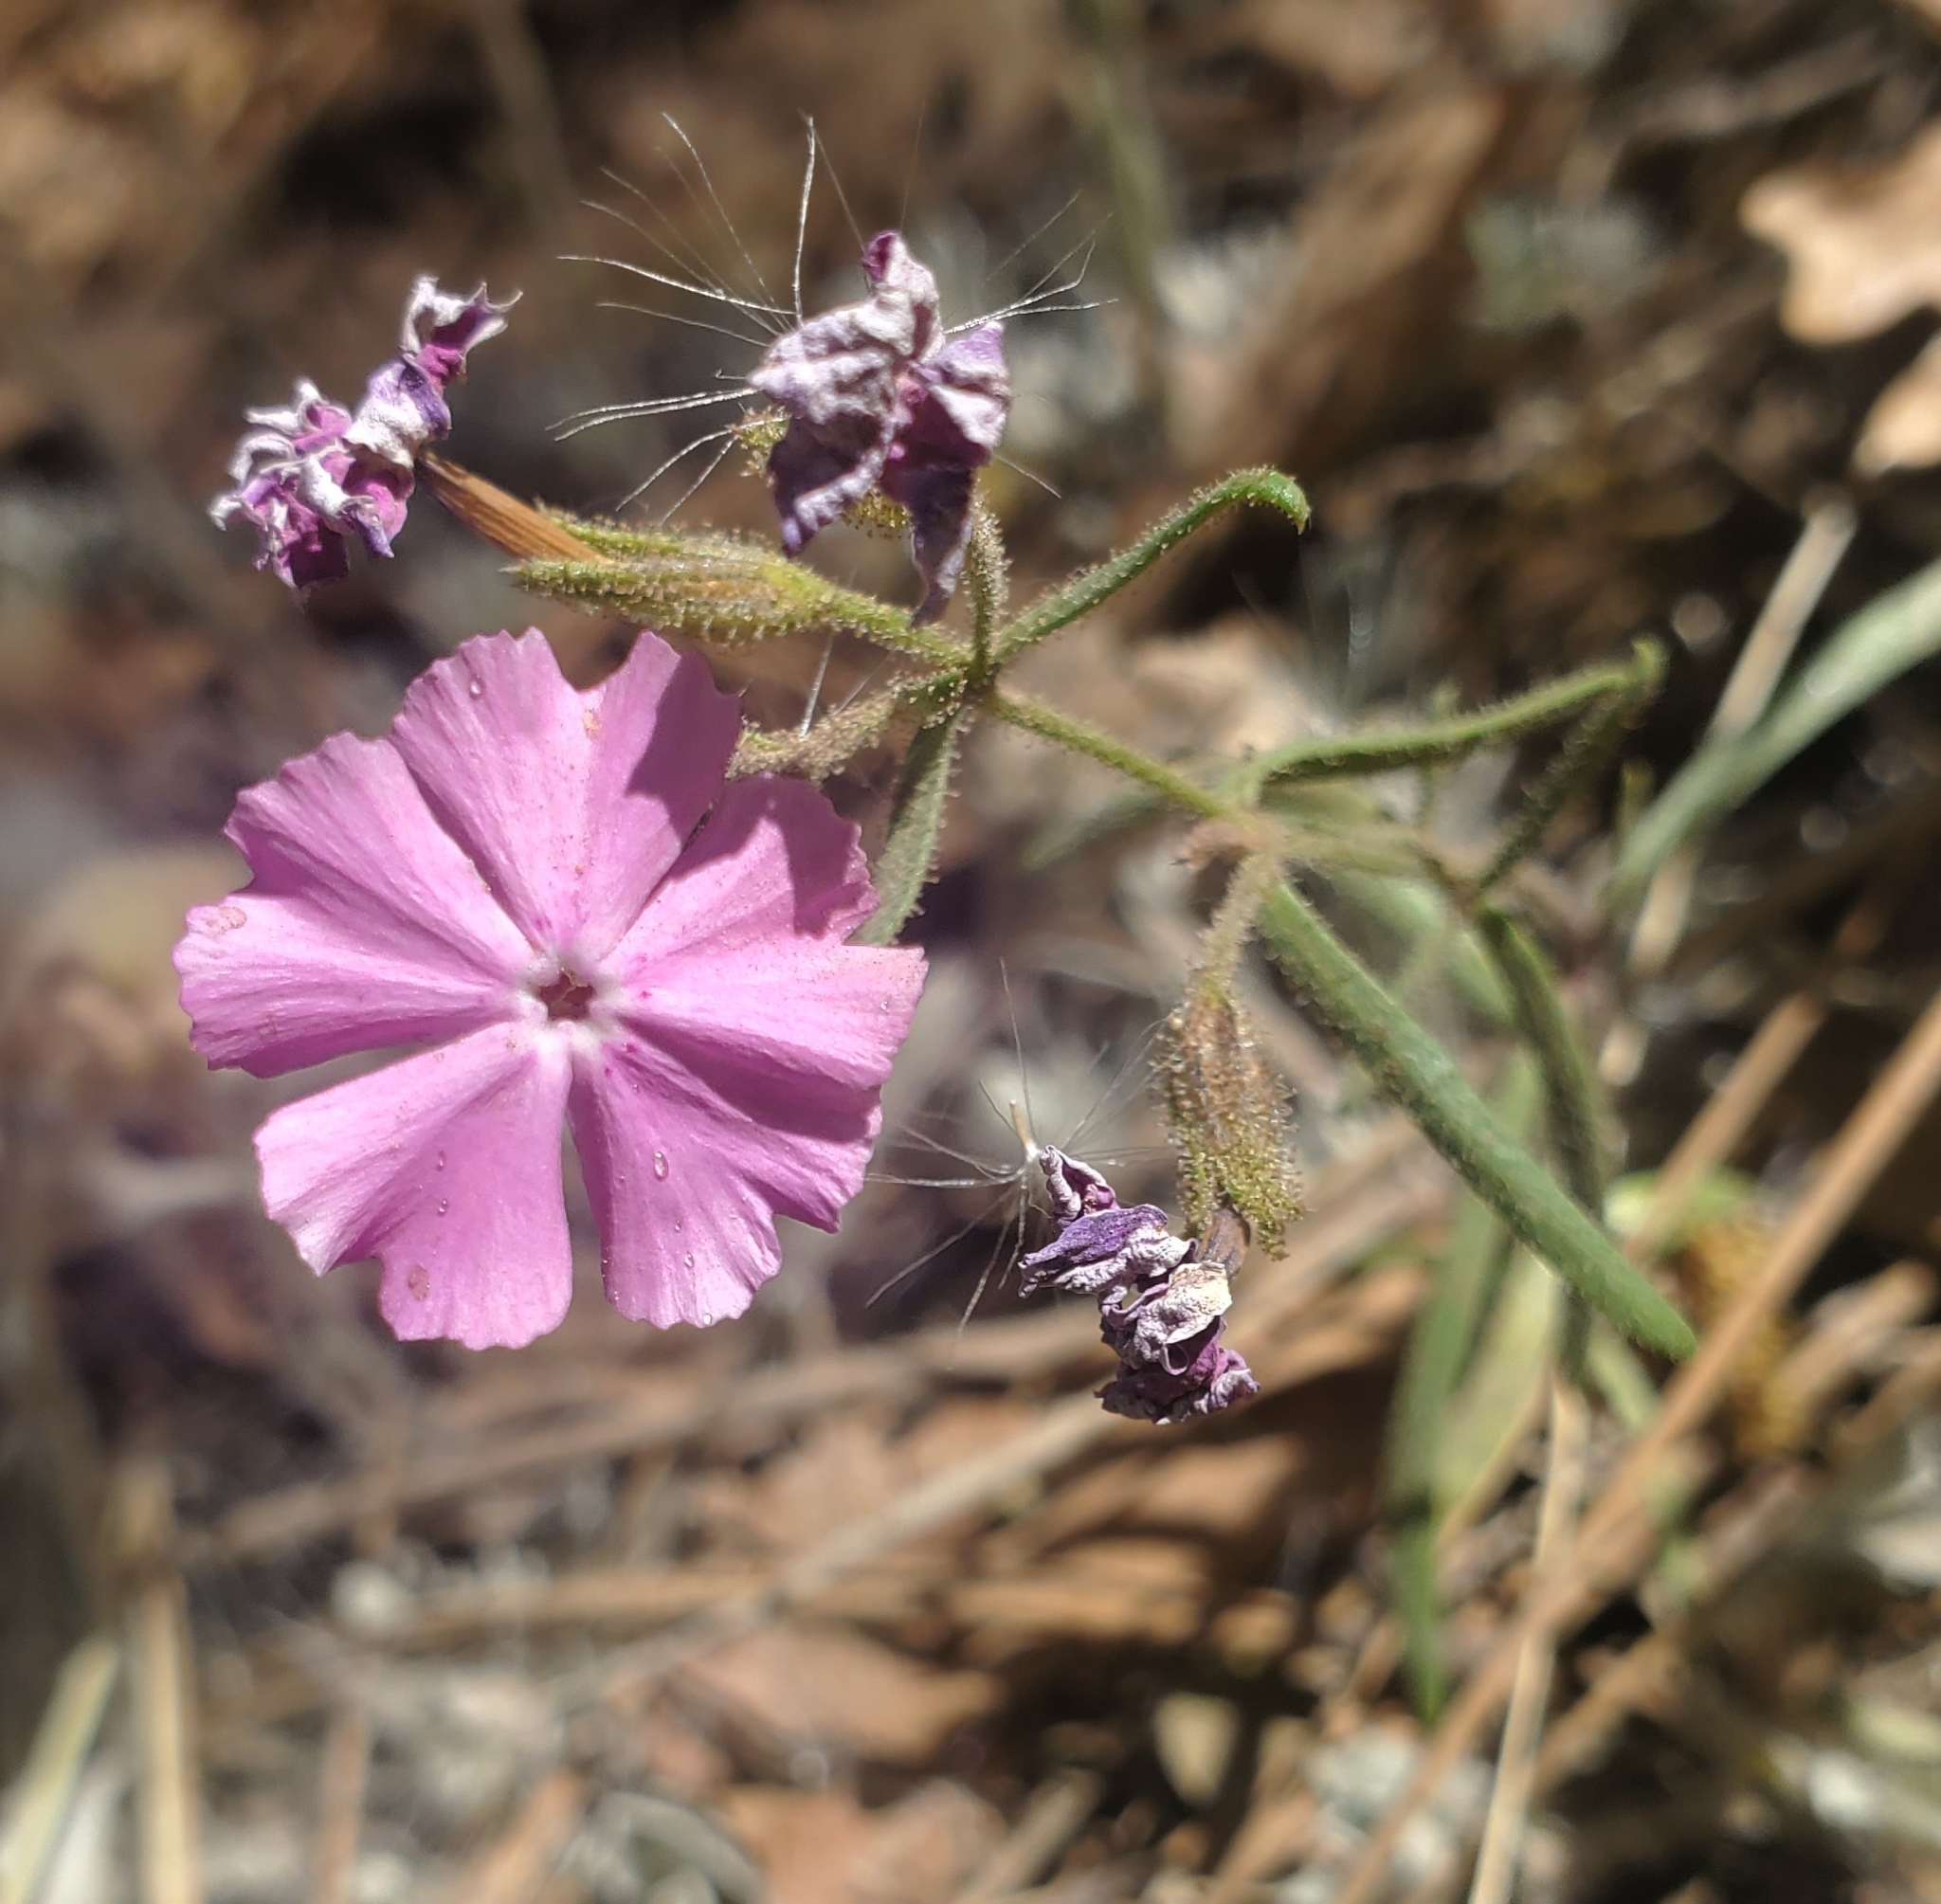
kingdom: Plantae
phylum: Tracheophyta
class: Magnoliopsida
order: Ericales
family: Polemoniaceae
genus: Phlox
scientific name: Phlox woodhousei
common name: Star phlox
